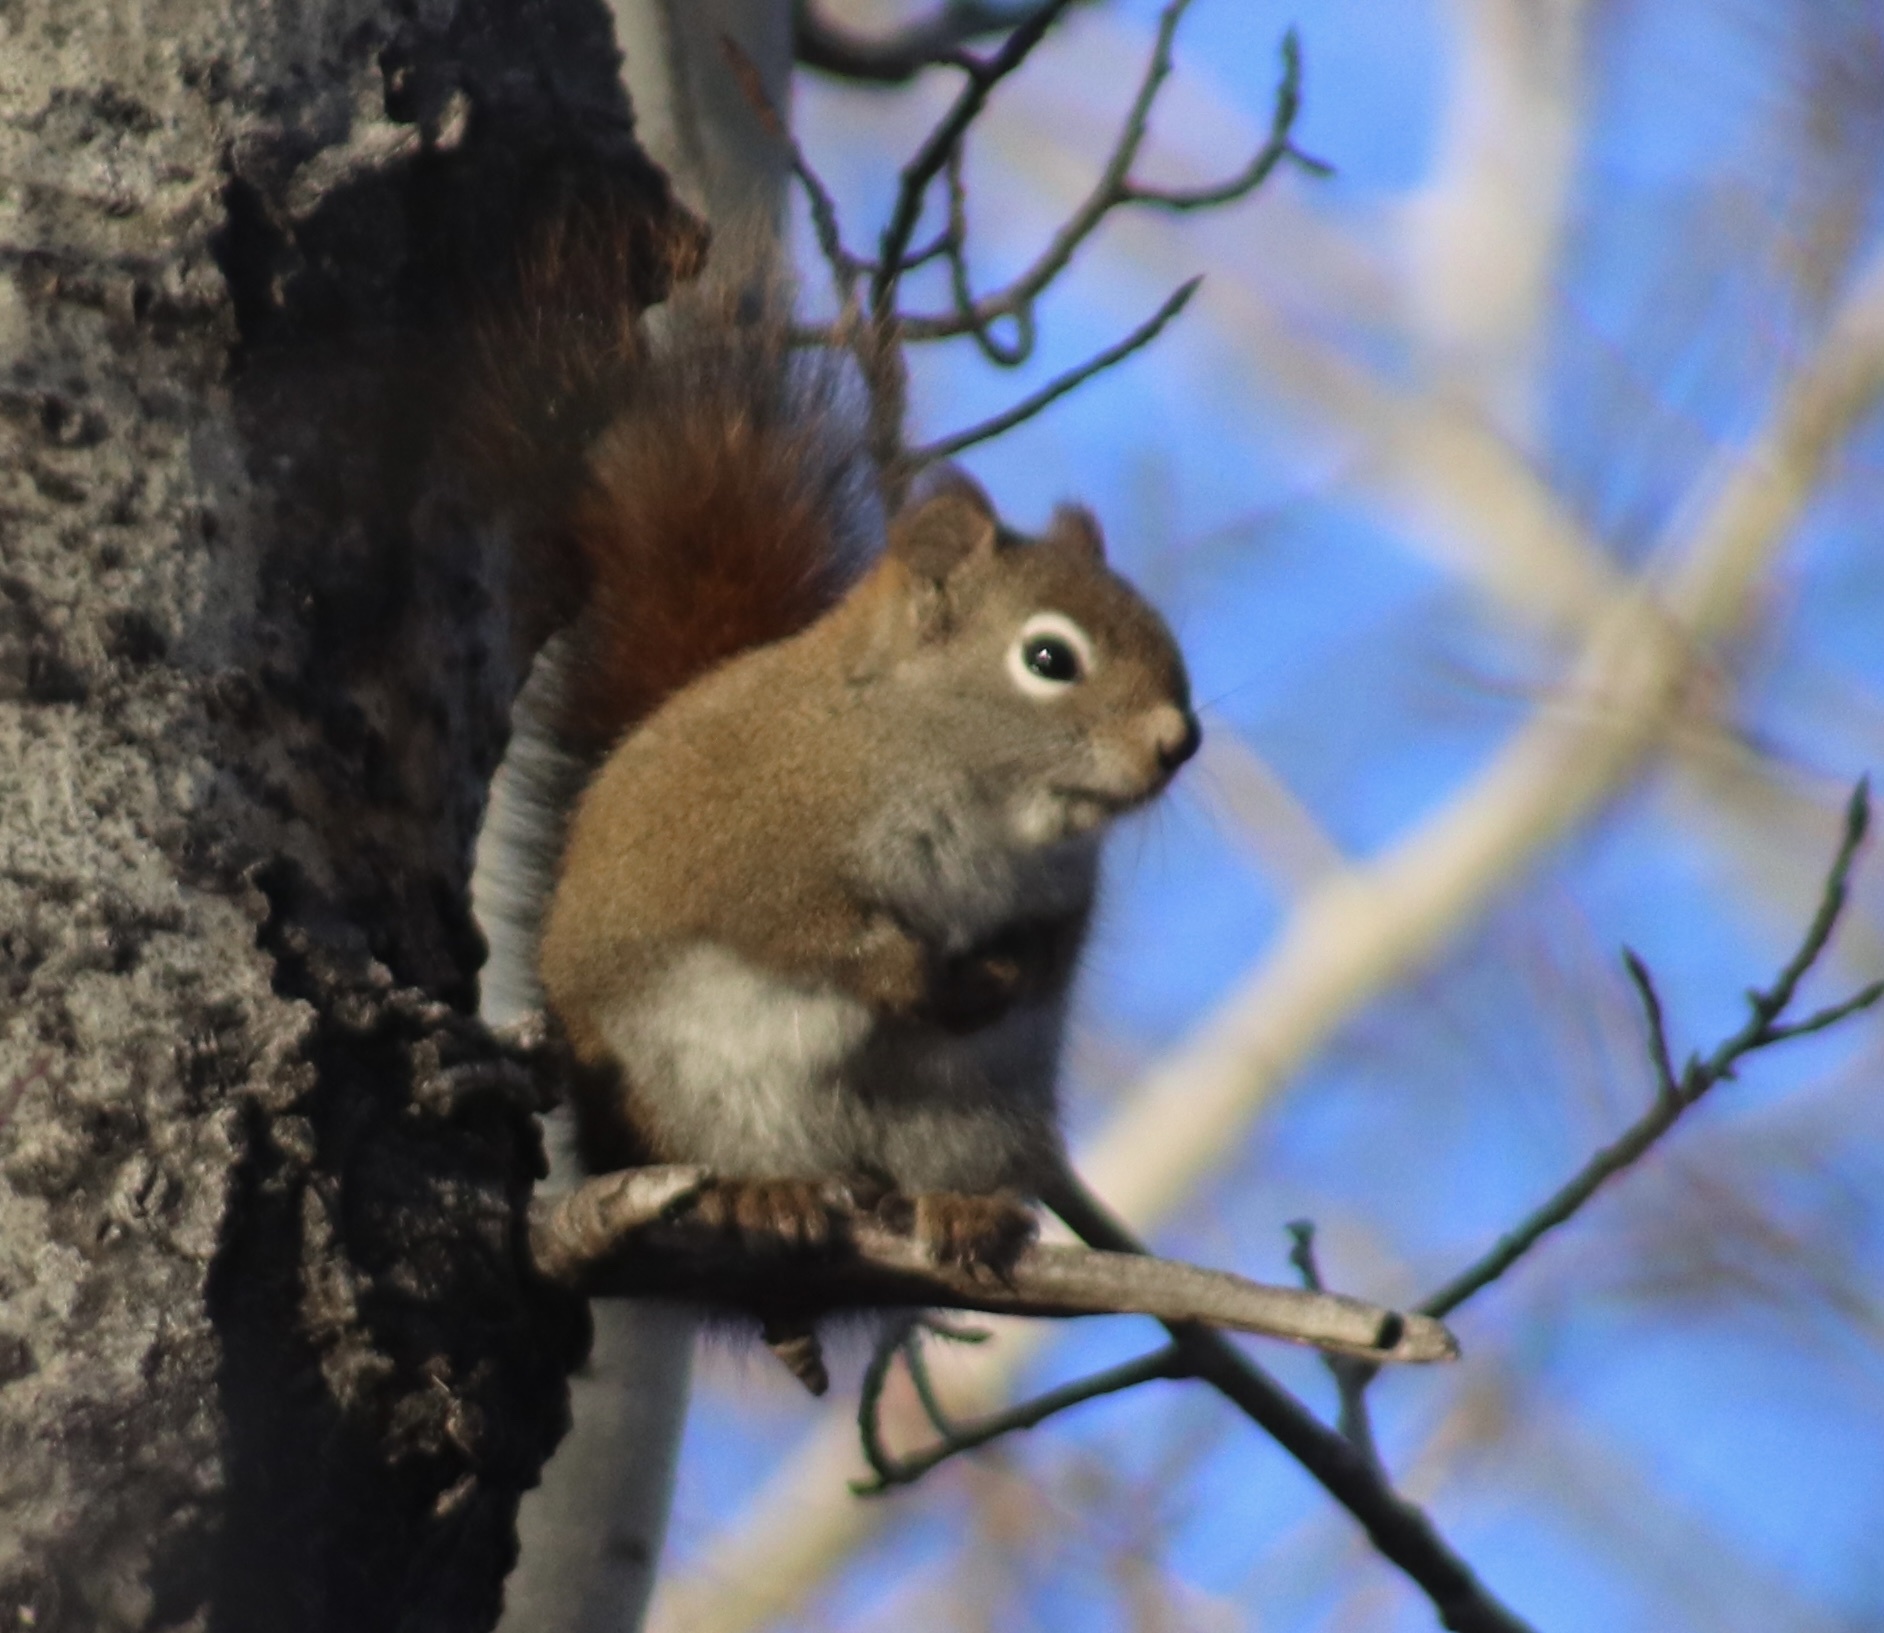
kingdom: Animalia
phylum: Chordata
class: Mammalia
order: Rodentia
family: Sciuridae
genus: Tamiasciurus
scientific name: Tamiasciurus hudsonicus
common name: Red squirrel
